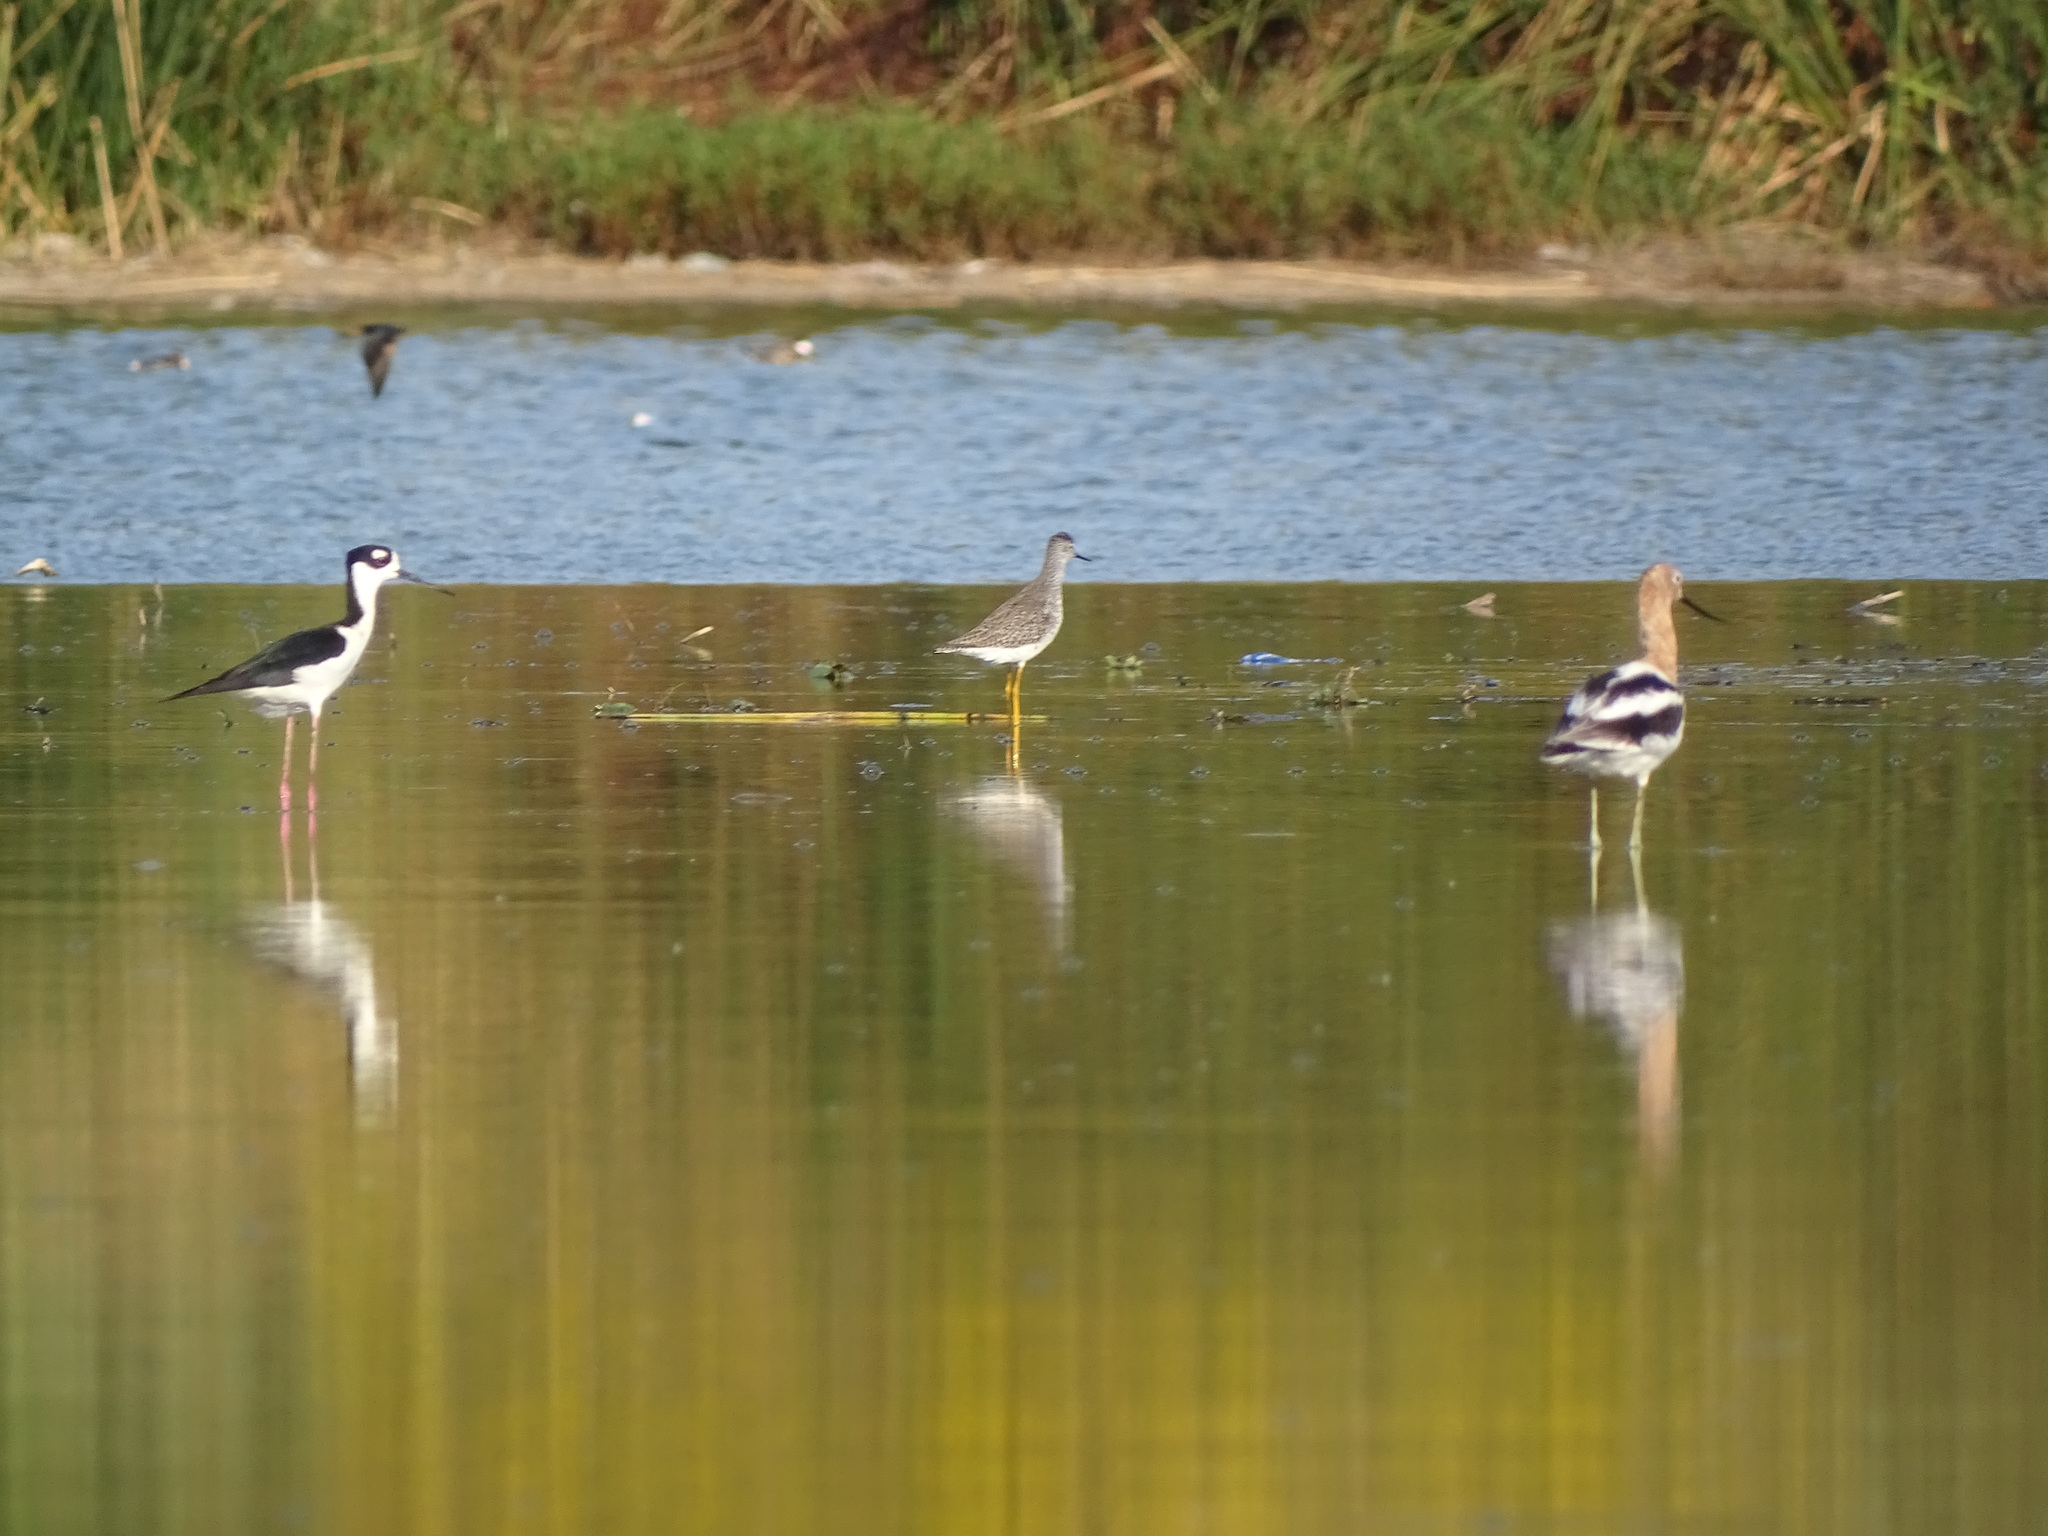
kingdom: Animalia
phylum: Chordata
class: Aves
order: Charadriiformes
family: Scolopacidae
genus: Tringa
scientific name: Tringa flavipes
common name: Lesser yellowlegs
